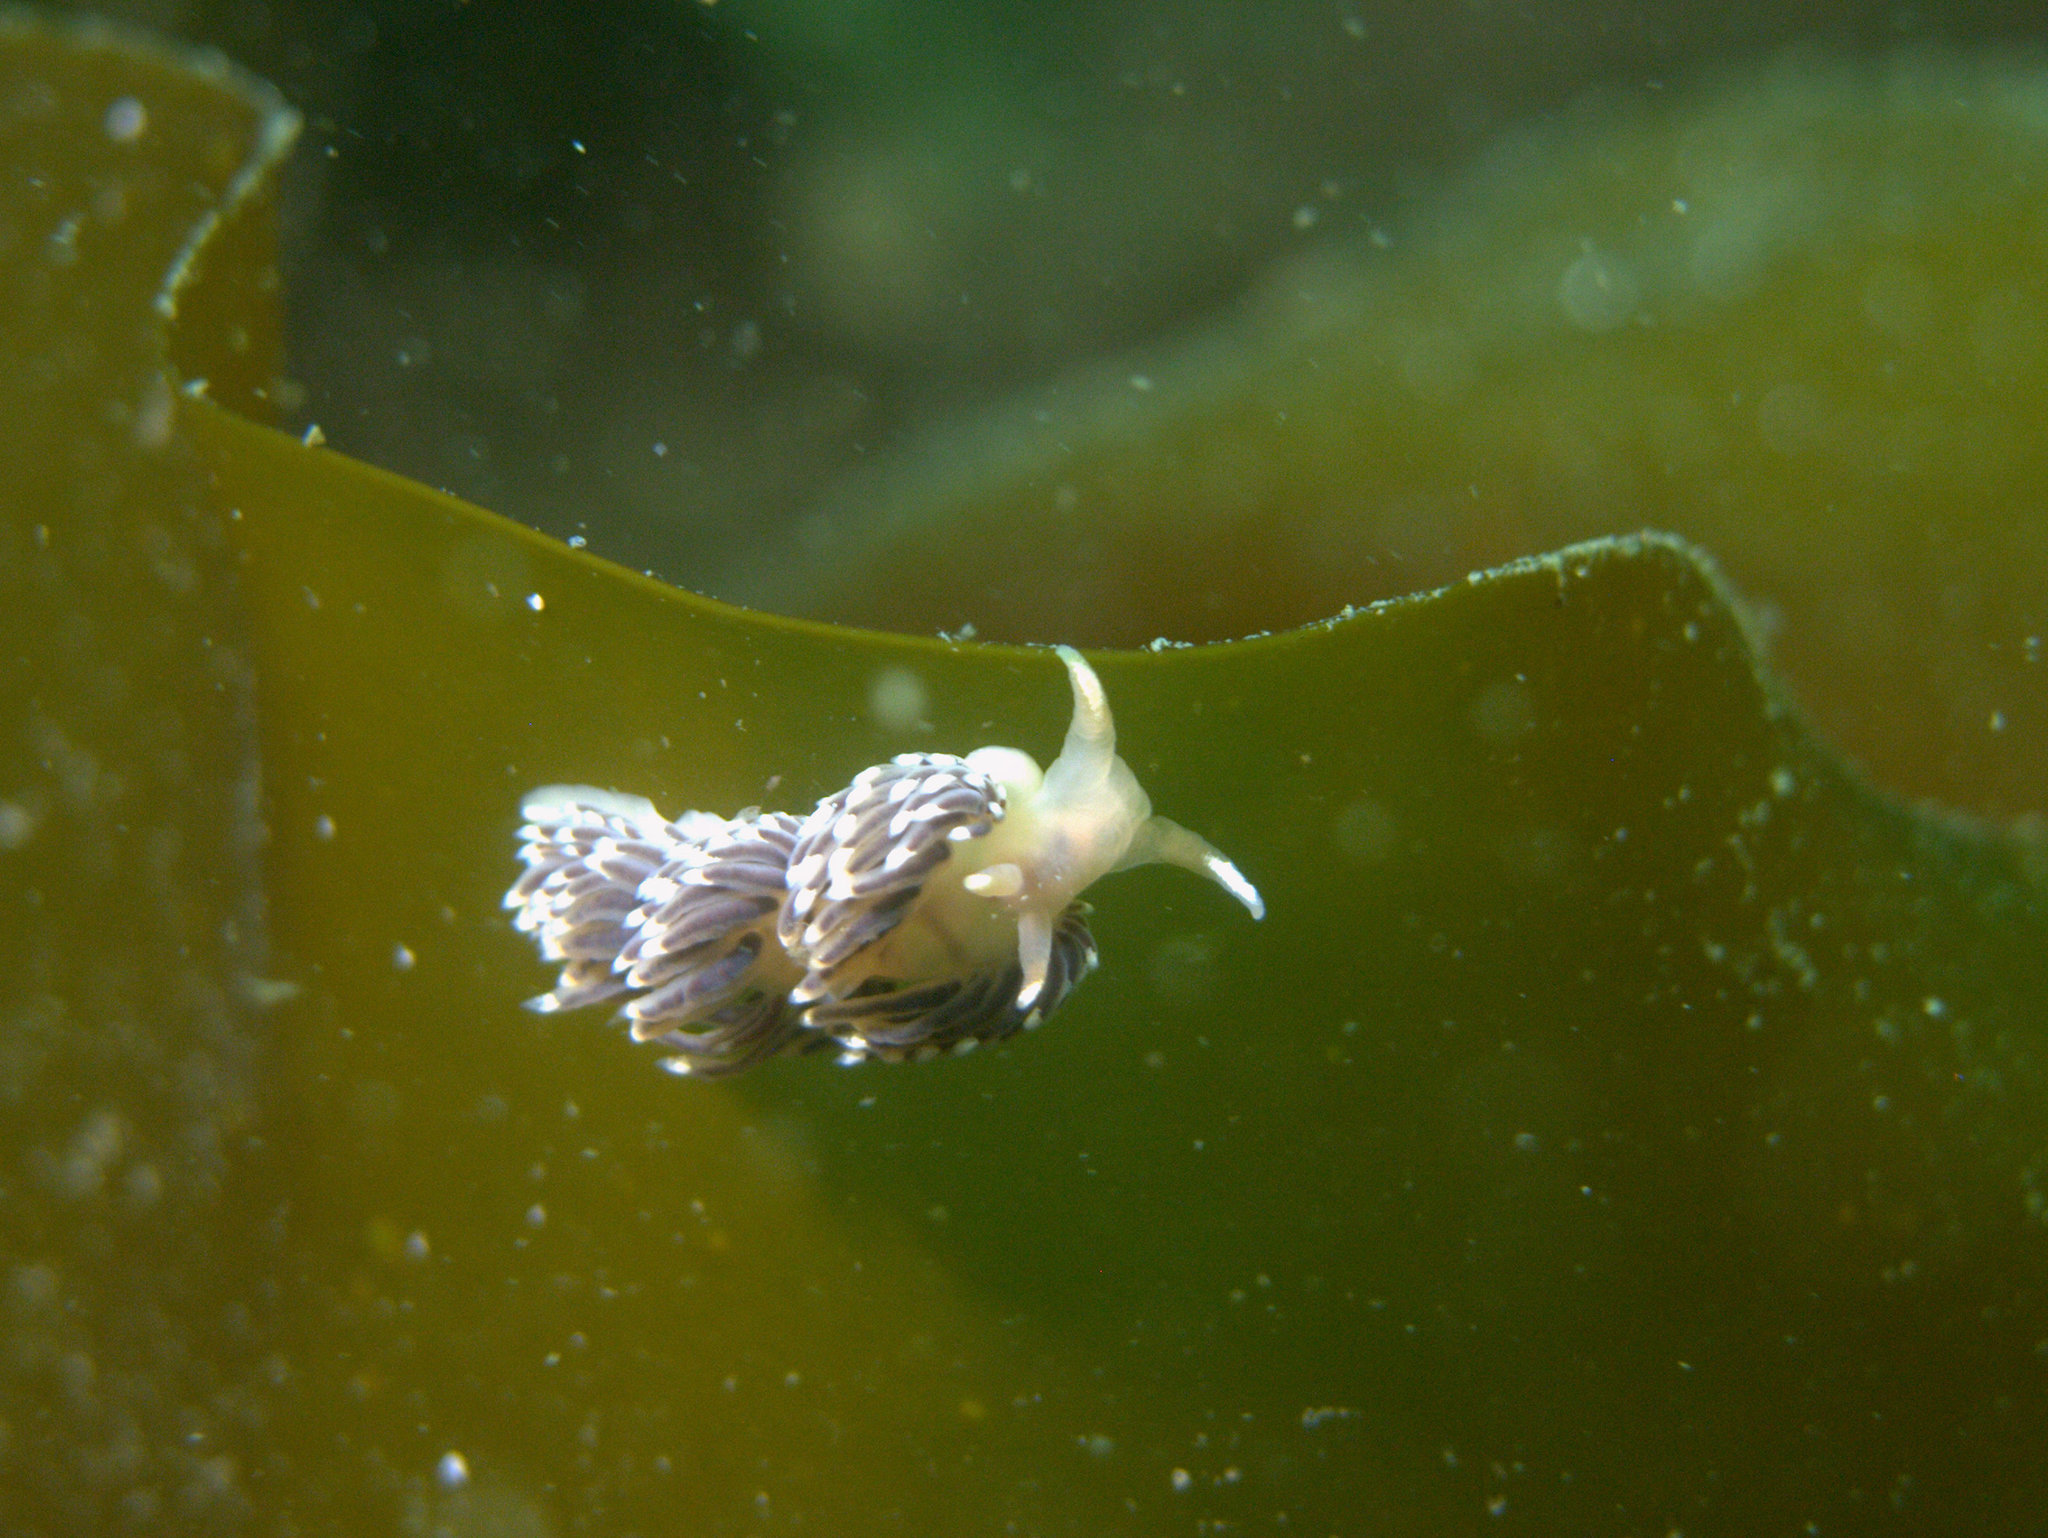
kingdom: Animalia
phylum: Mollusca
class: Gastropoda
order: Nudibranchia
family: Facelinidae
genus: Facelina
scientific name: Facelina auriculata
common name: Slender facelina
